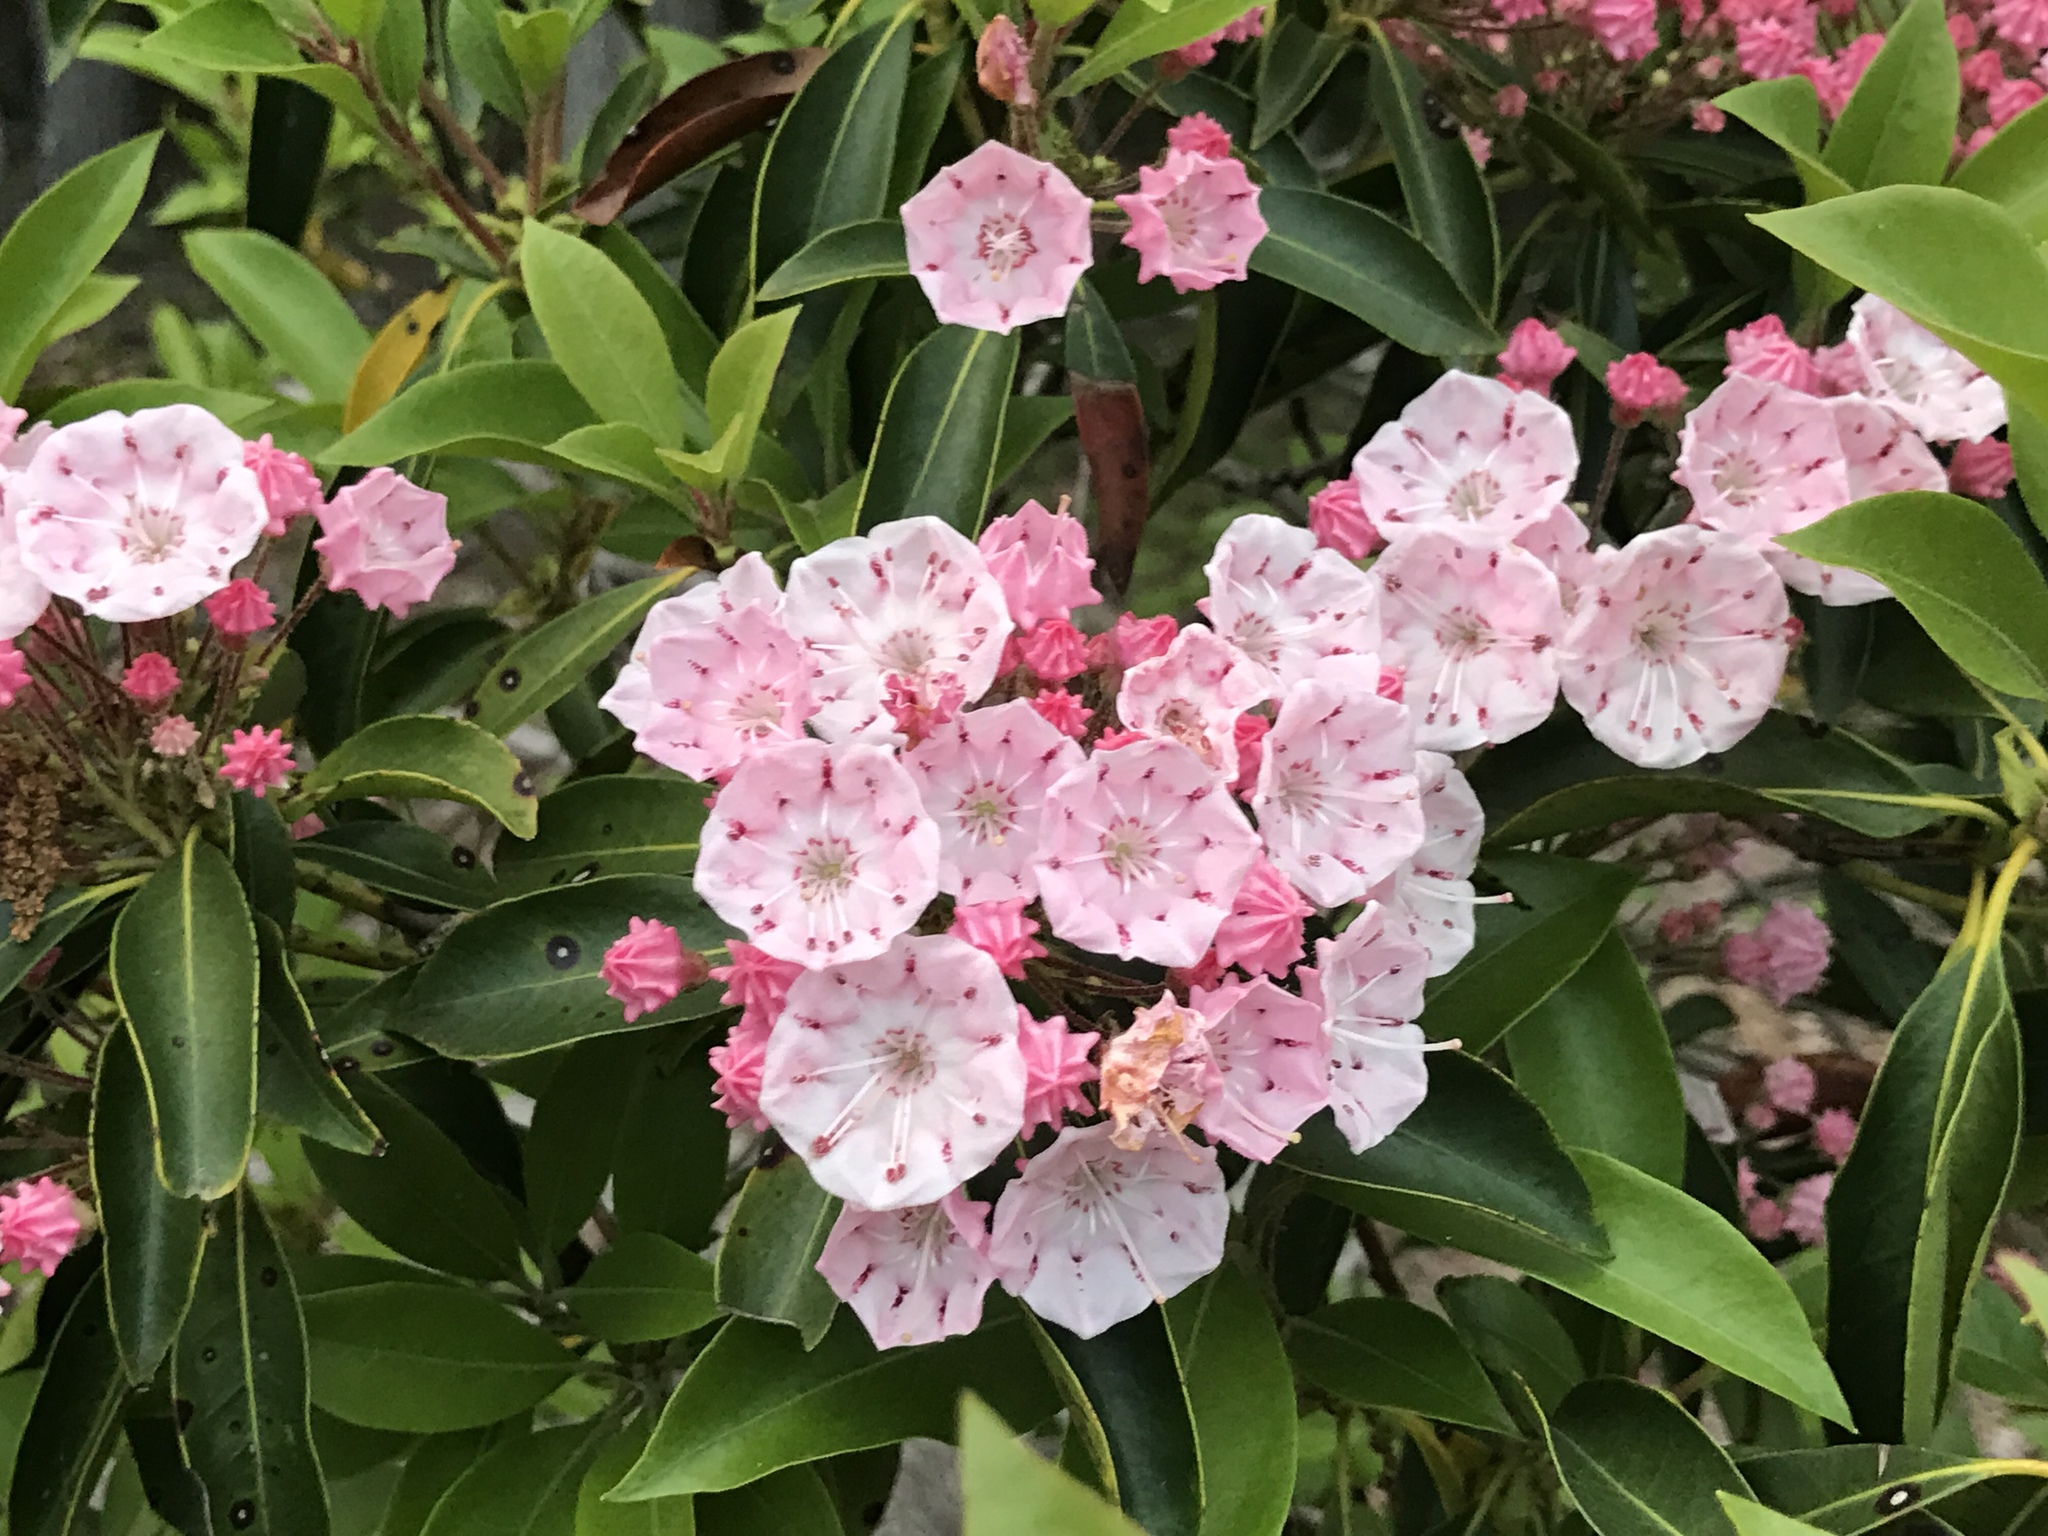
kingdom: Plantae
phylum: Tracheophyta
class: Magnoliopsida
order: Ericales
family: Ericaceae
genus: Kalmia
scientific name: Kalmia latifolia
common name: Mountain-laurel
